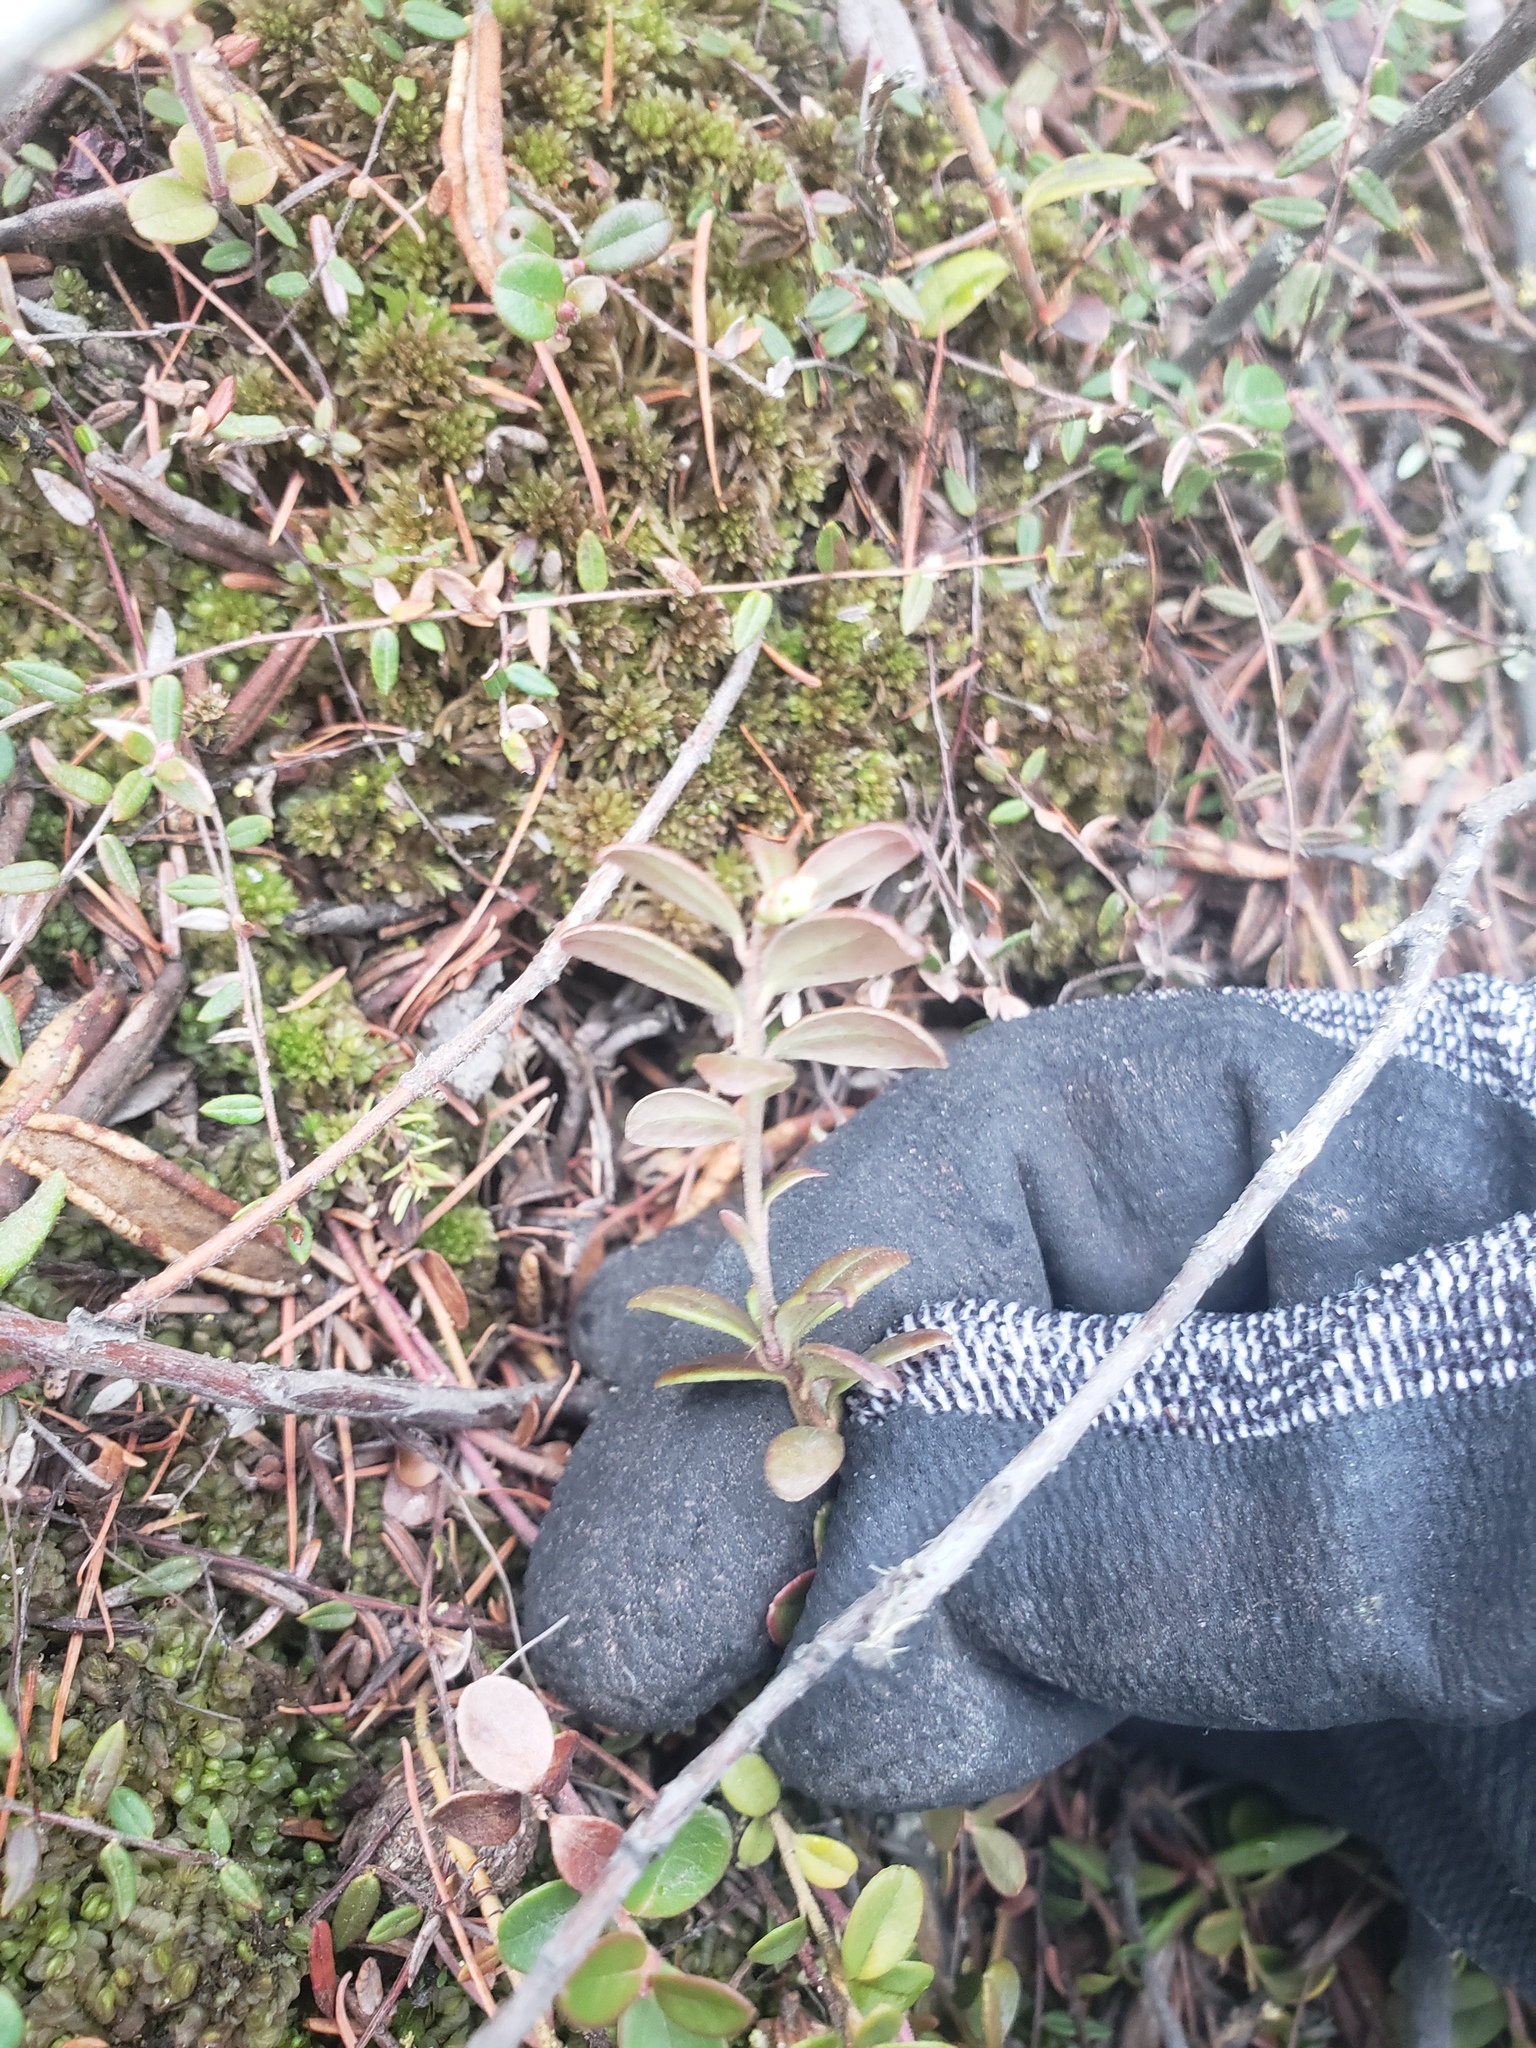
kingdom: Plantae
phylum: Tracheophyta
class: Magnoliopsida
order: Ericales
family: Ericaceae
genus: Vaccinium
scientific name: Vaccinium vitis-idaea
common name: Cowberry
